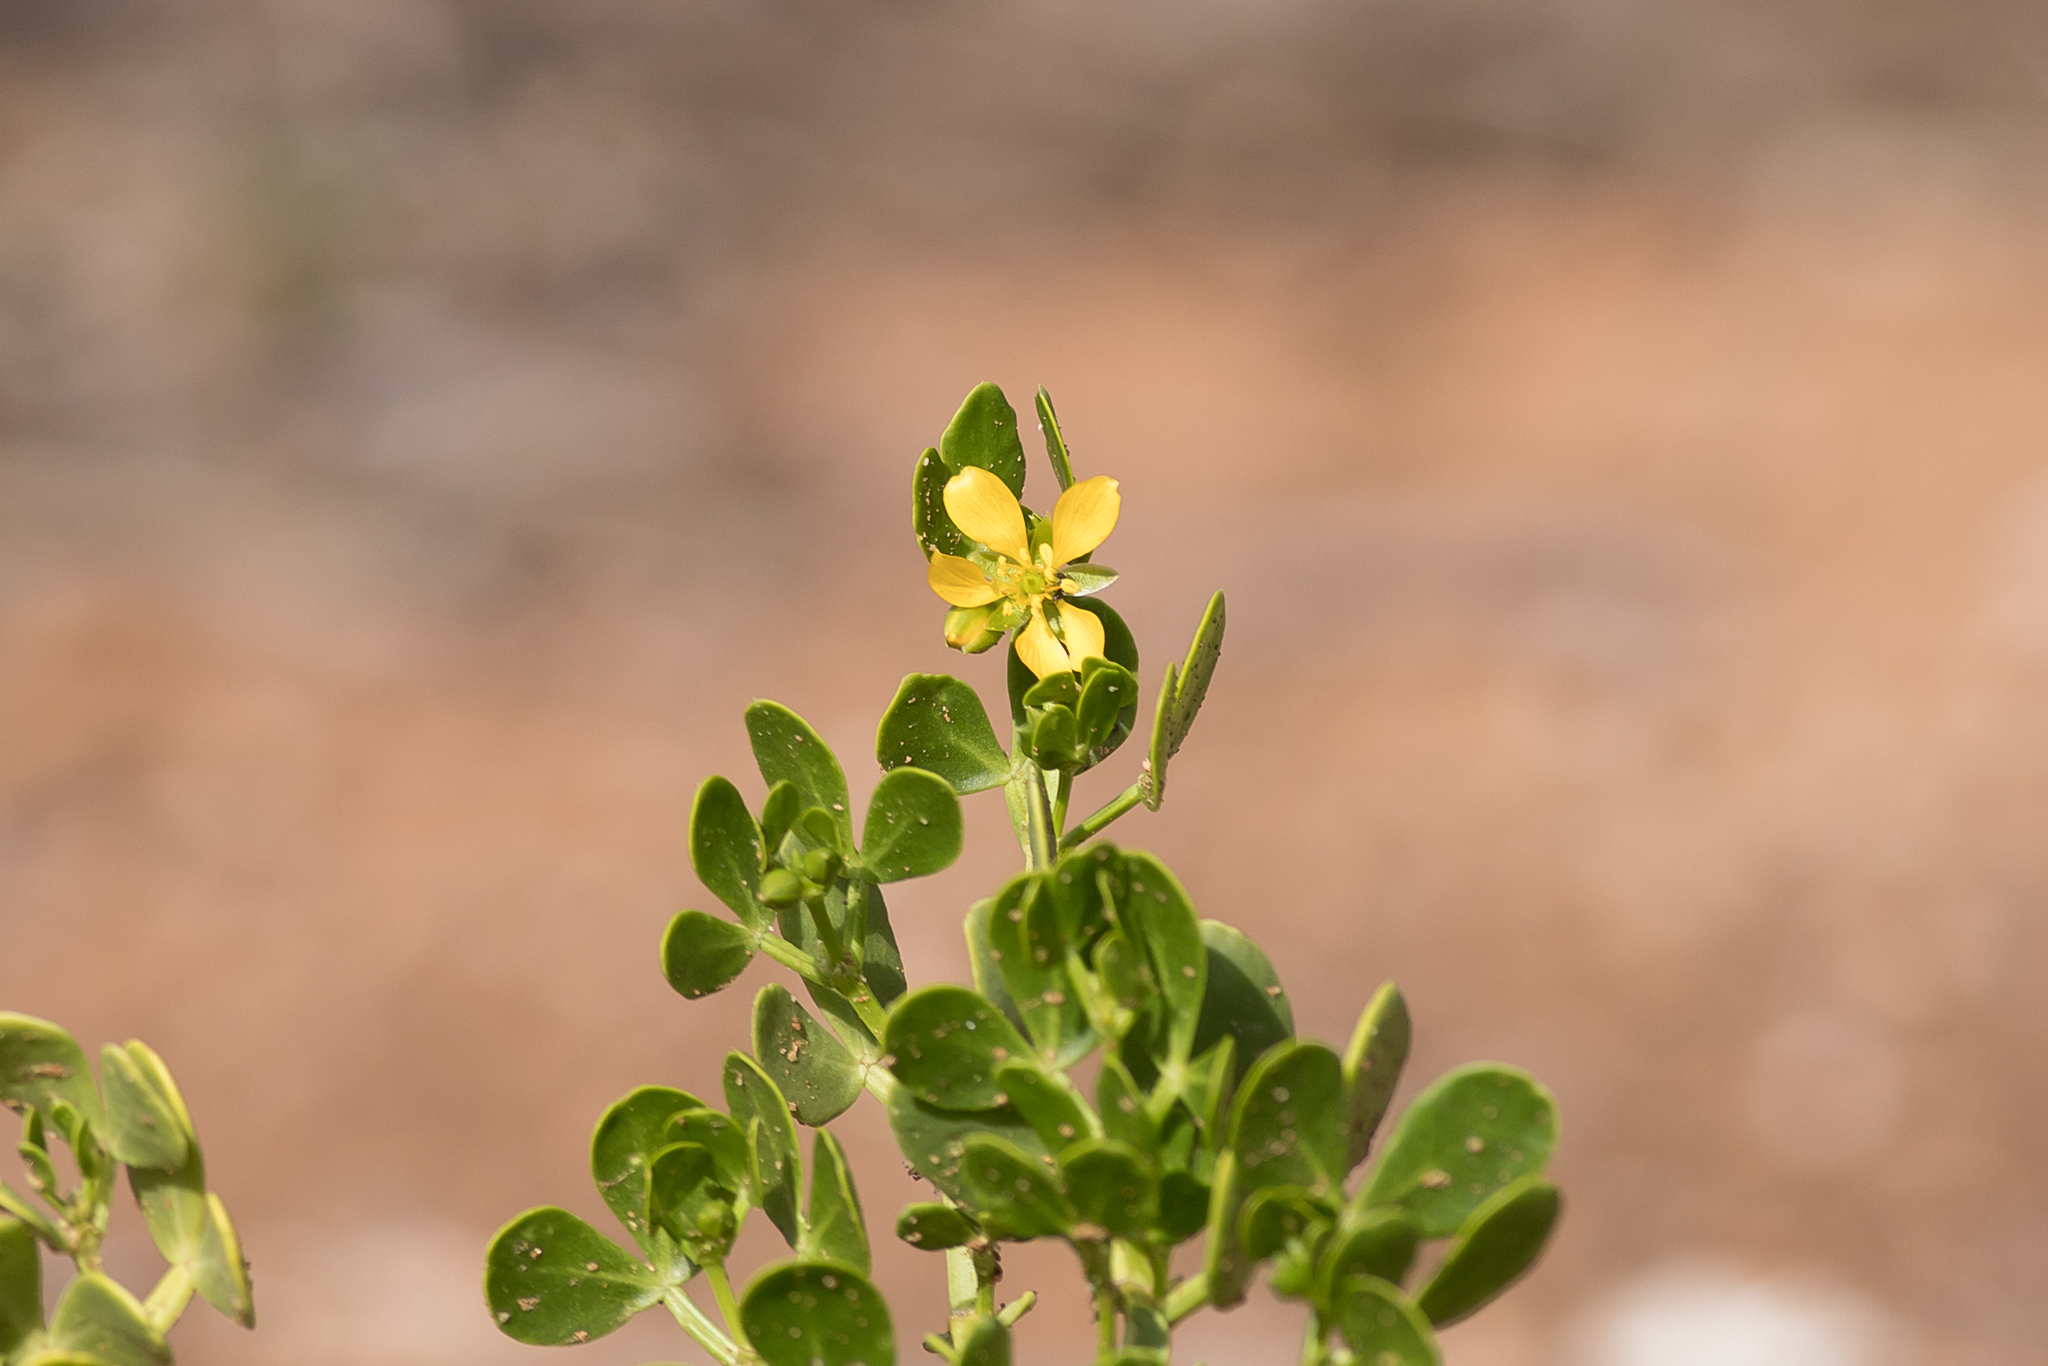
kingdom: Plantae
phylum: Tracheophyta
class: Magnoliopsida
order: Zygophyllales
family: Zygophyllaceae
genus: Roepera
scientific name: Roepera apiculata
